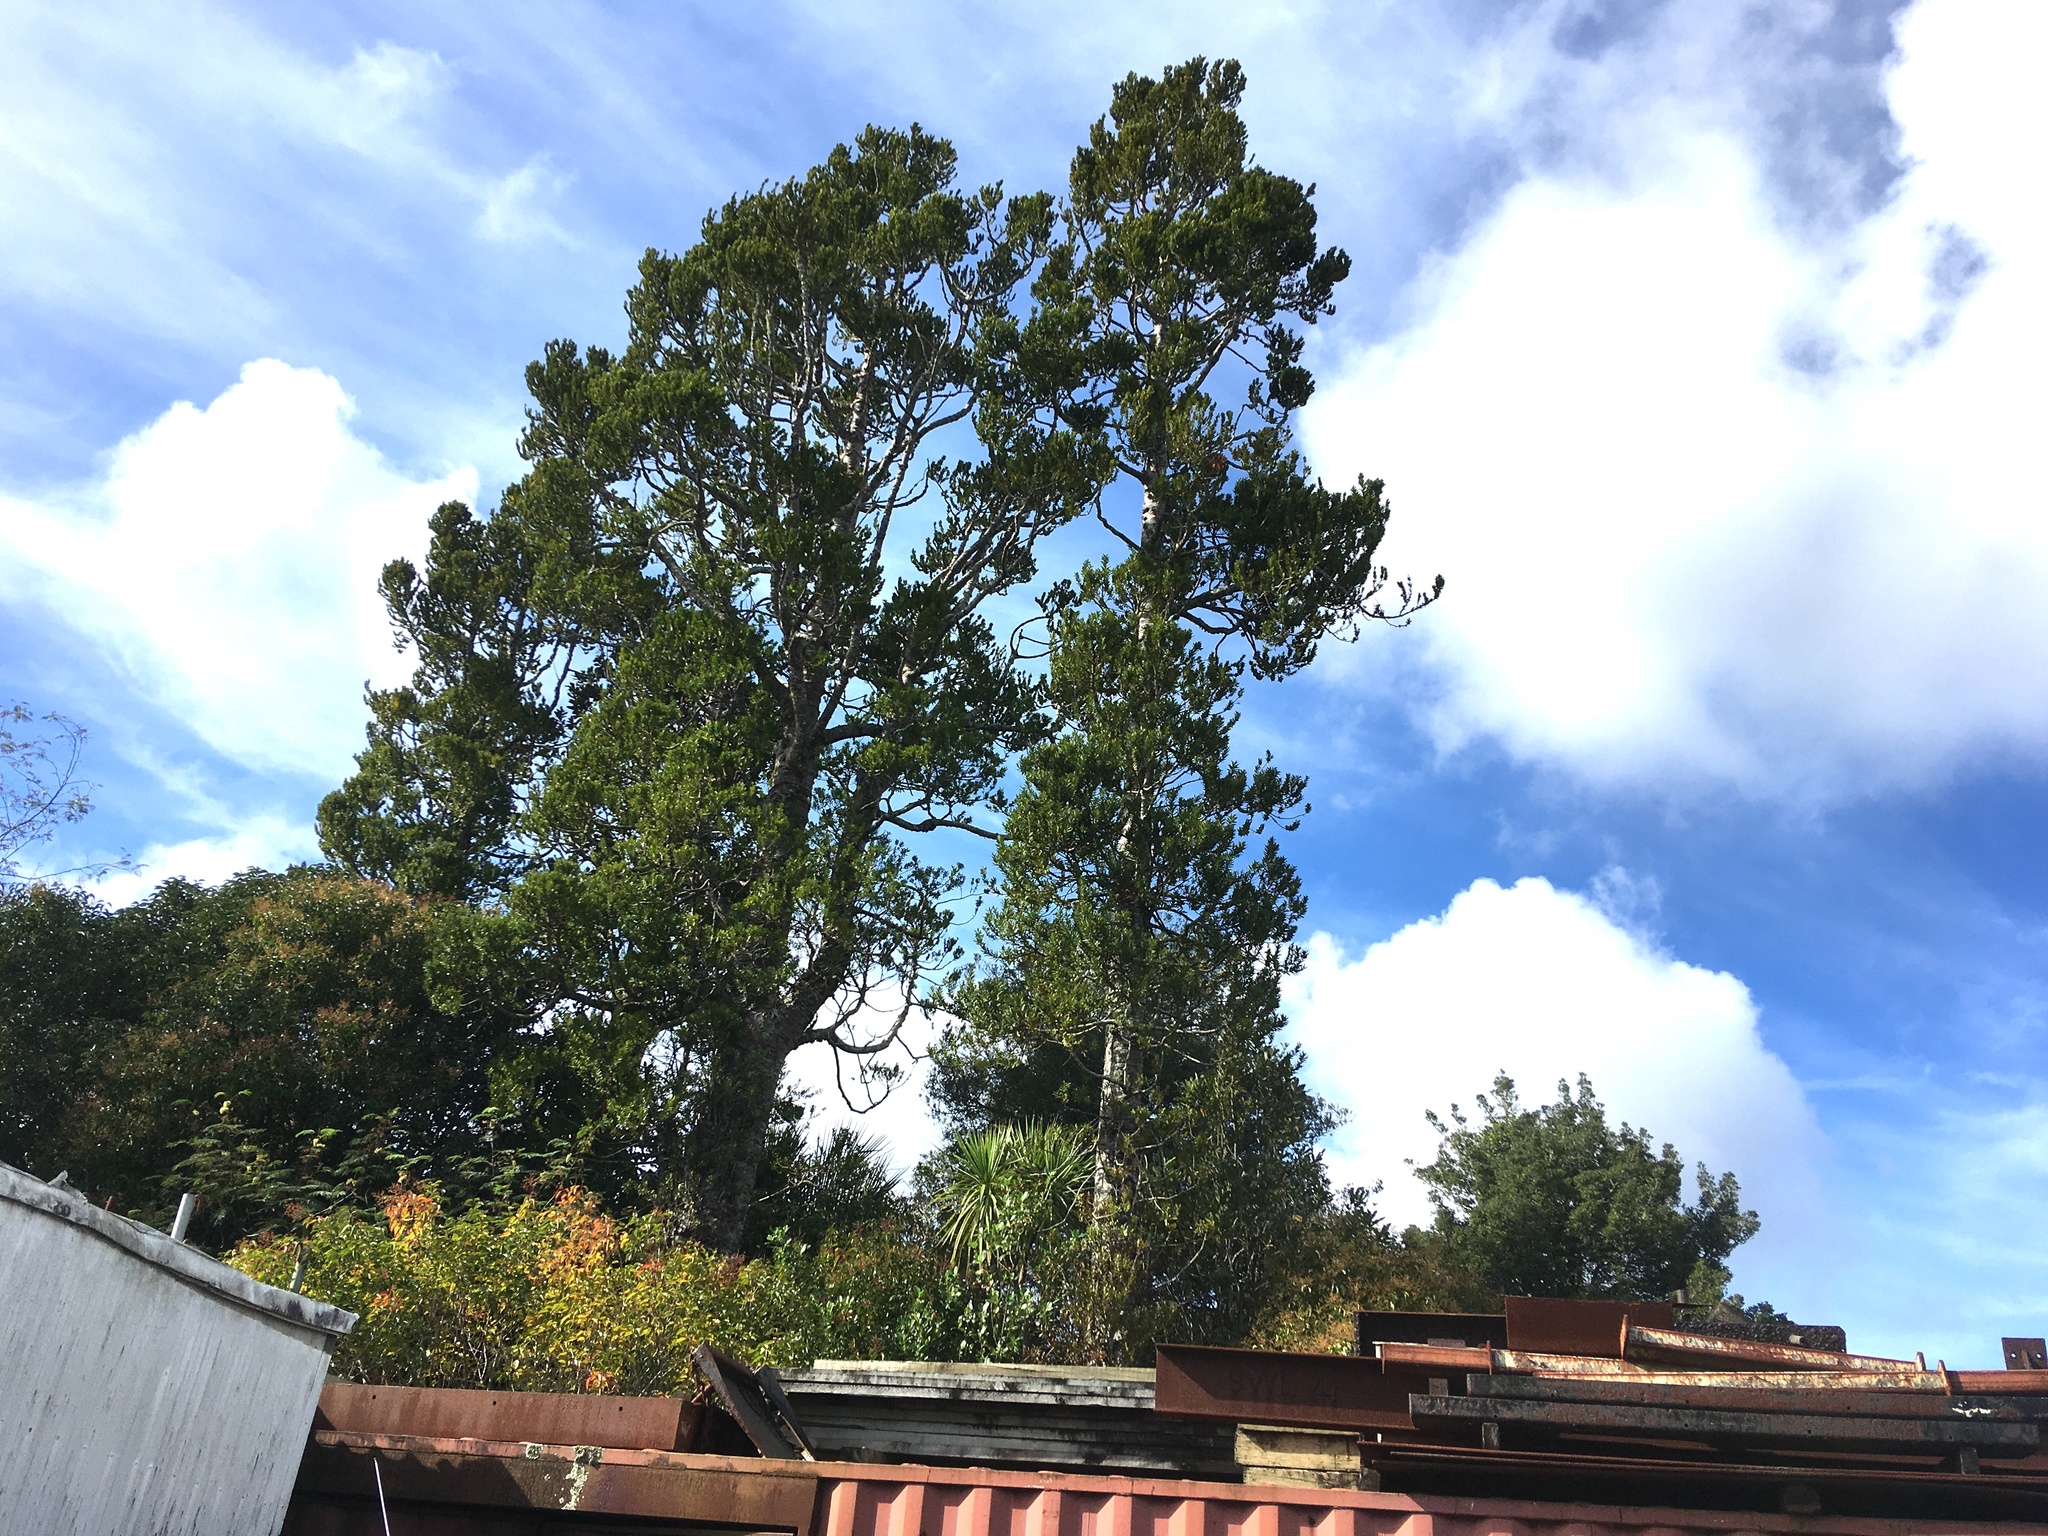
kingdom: Plantae
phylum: Tracheophyta
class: Pinopsida
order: Pinales
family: Araucariaceae
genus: Agathis
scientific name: Agathis australis
